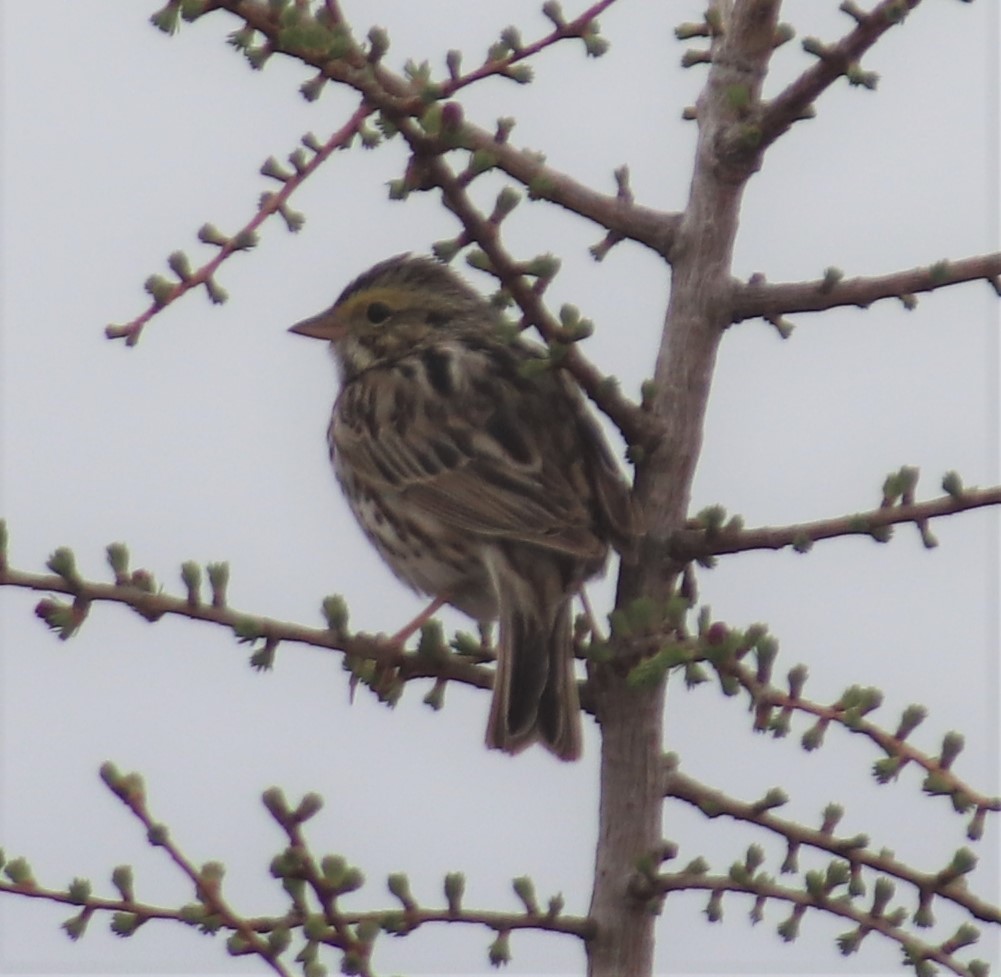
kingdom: Animalia
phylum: Chordata
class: Aves
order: Passeriformes
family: Passerellidae
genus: Passerculus
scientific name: Passerculus sandwichensis
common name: Savannah sparrow
